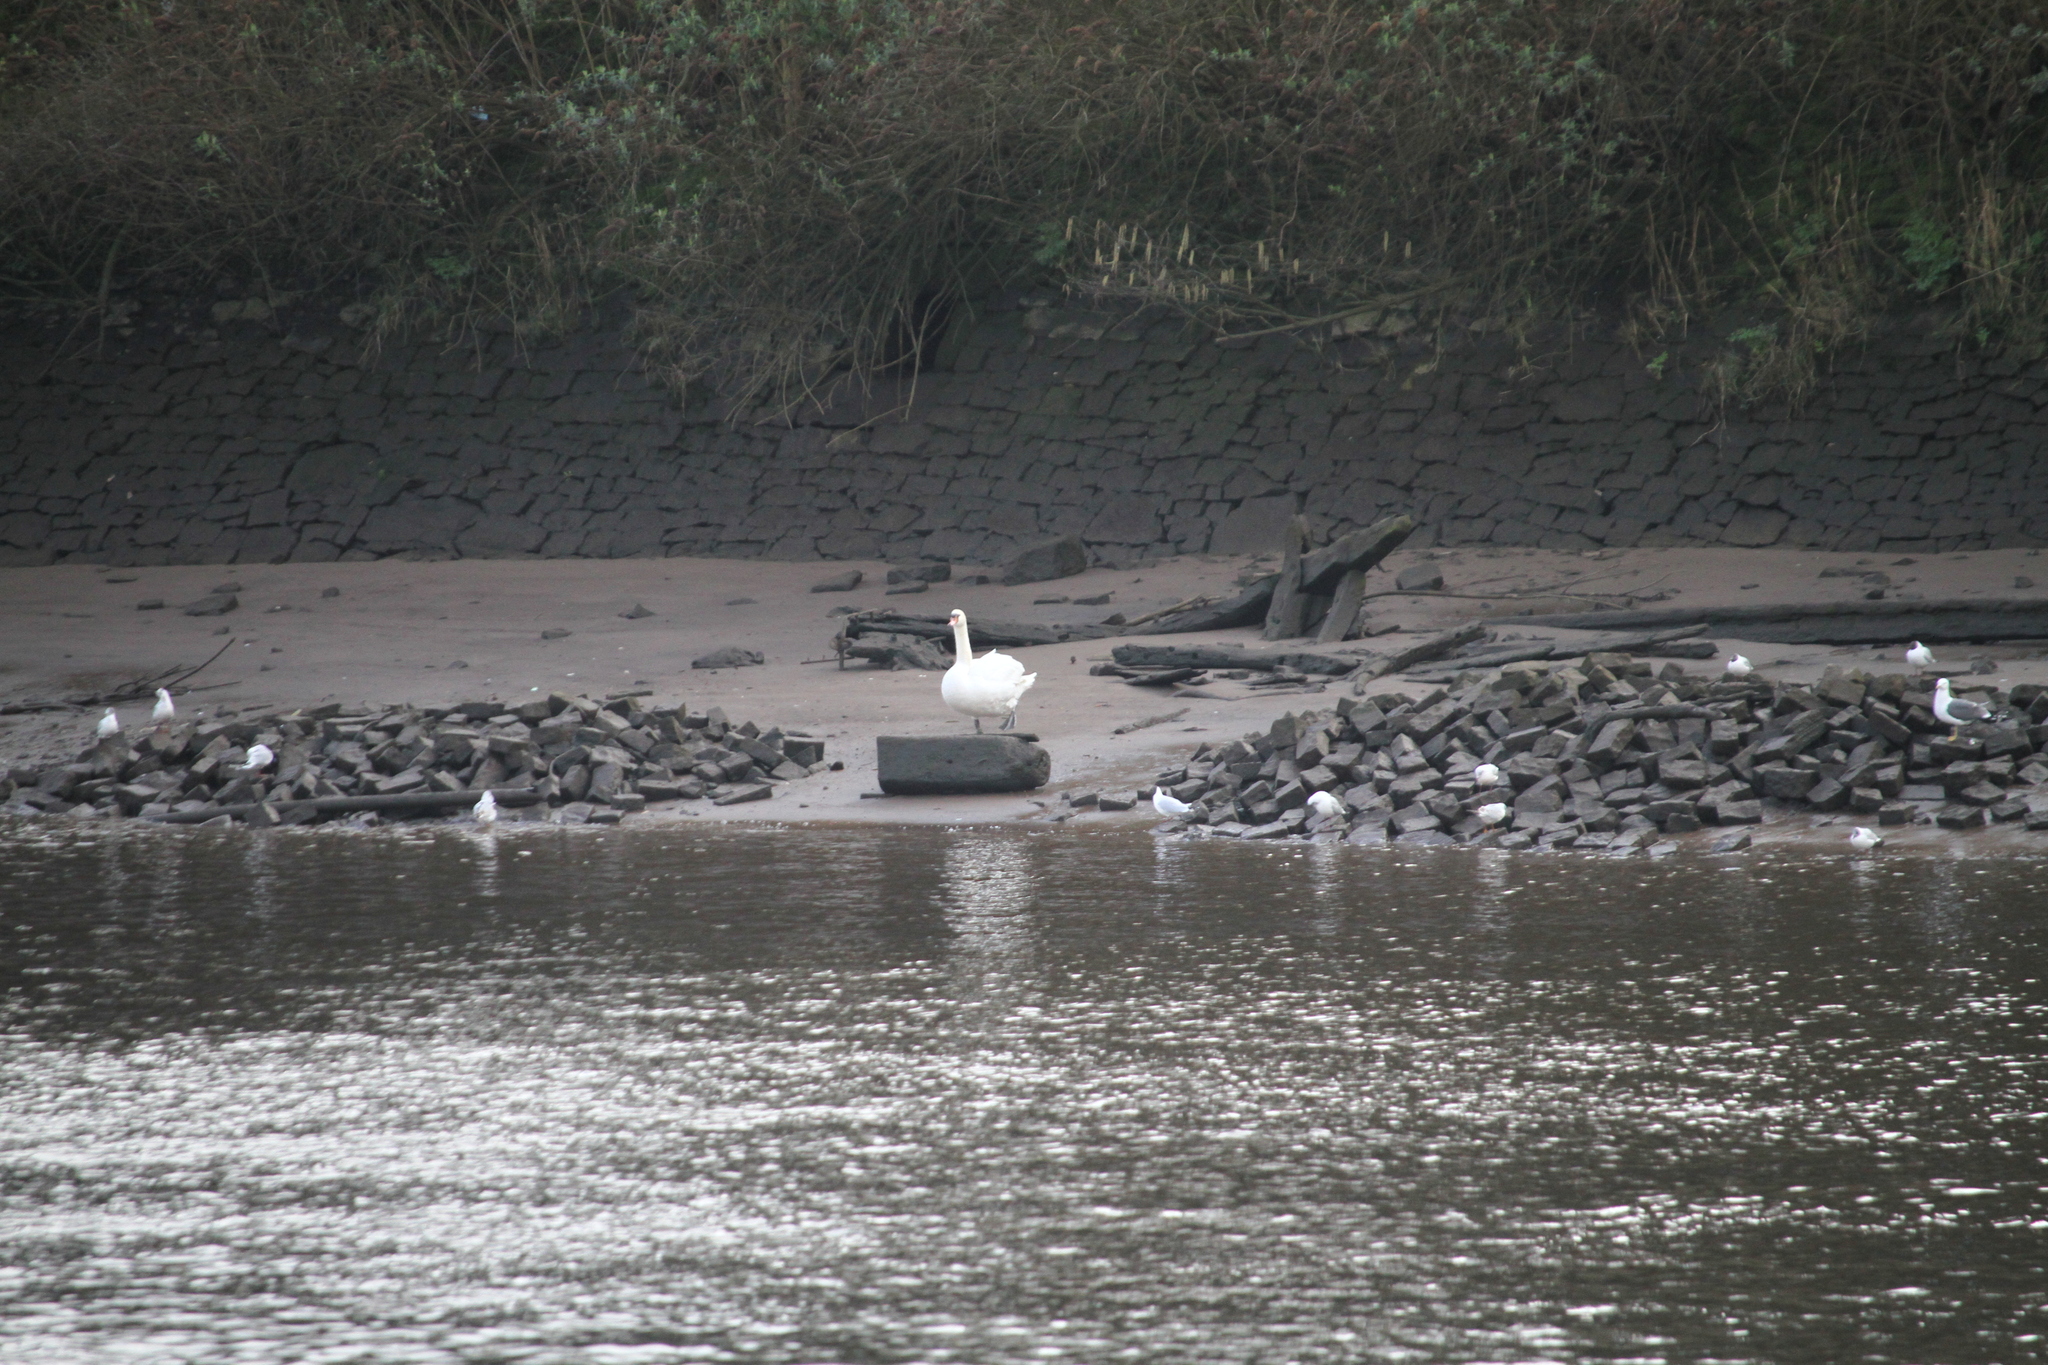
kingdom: Animalia
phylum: Chordata
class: Aves
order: Anseriformes
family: Anatidae
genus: Cygnus
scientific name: Cygnus olor
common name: Mute swan
